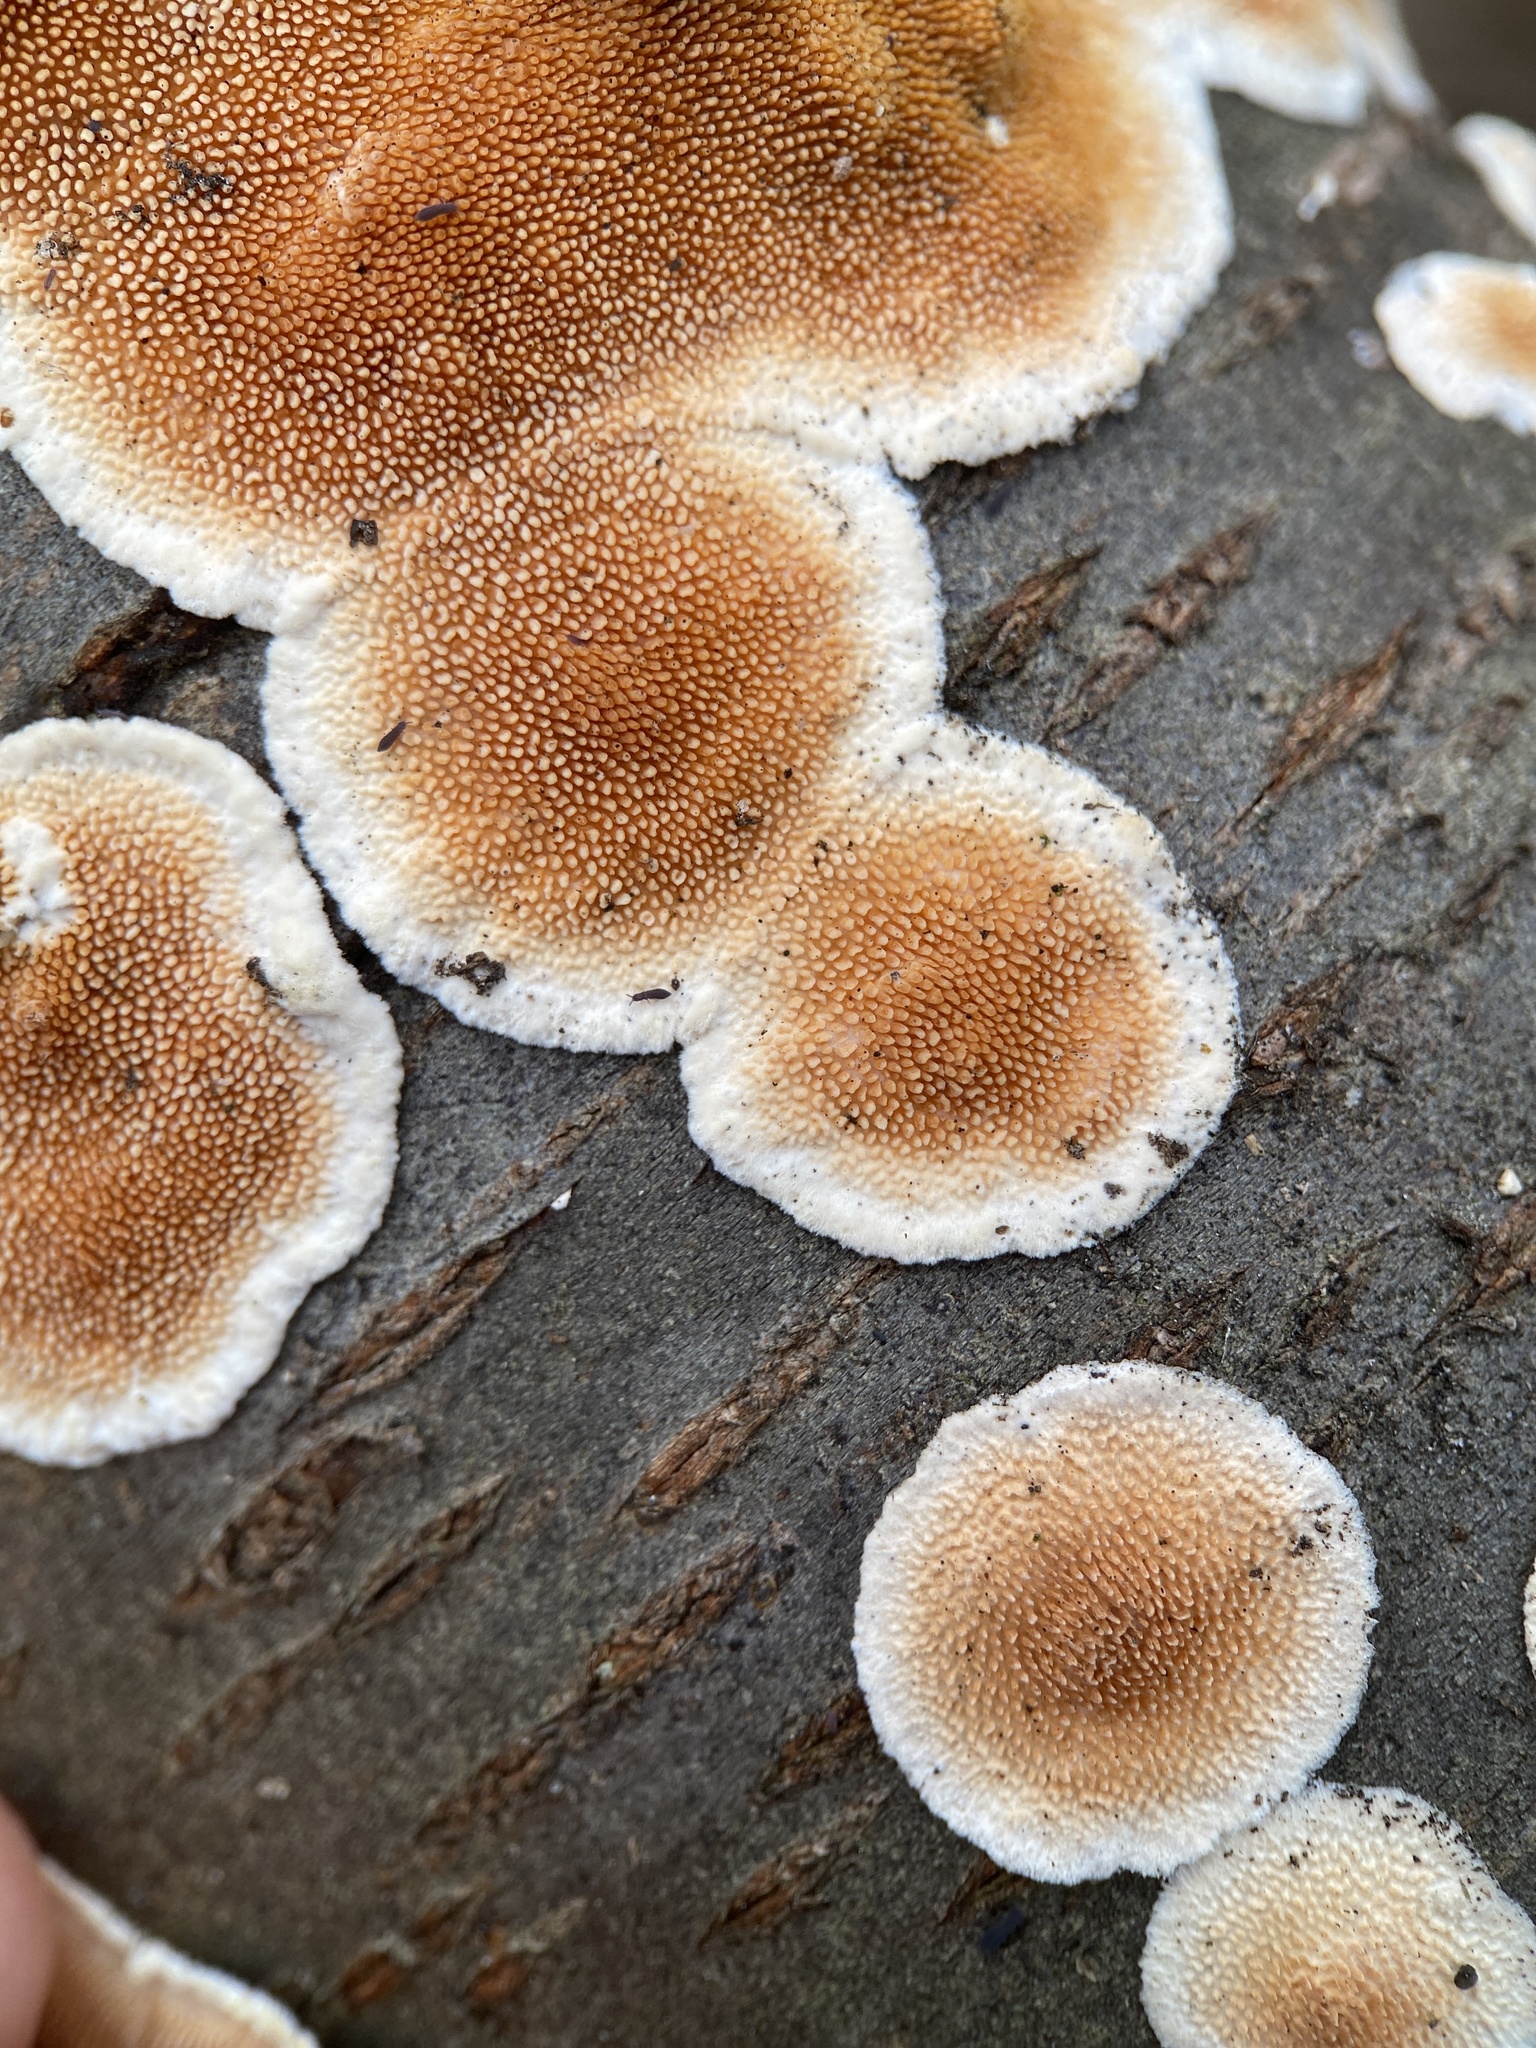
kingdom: Fungi
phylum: Basidiomycota
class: Agaricomycetes
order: Polyporales
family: Steccherinaceae
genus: Steccherinum
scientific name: Steccherinum ochraceum
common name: Ochre spreading tooth
